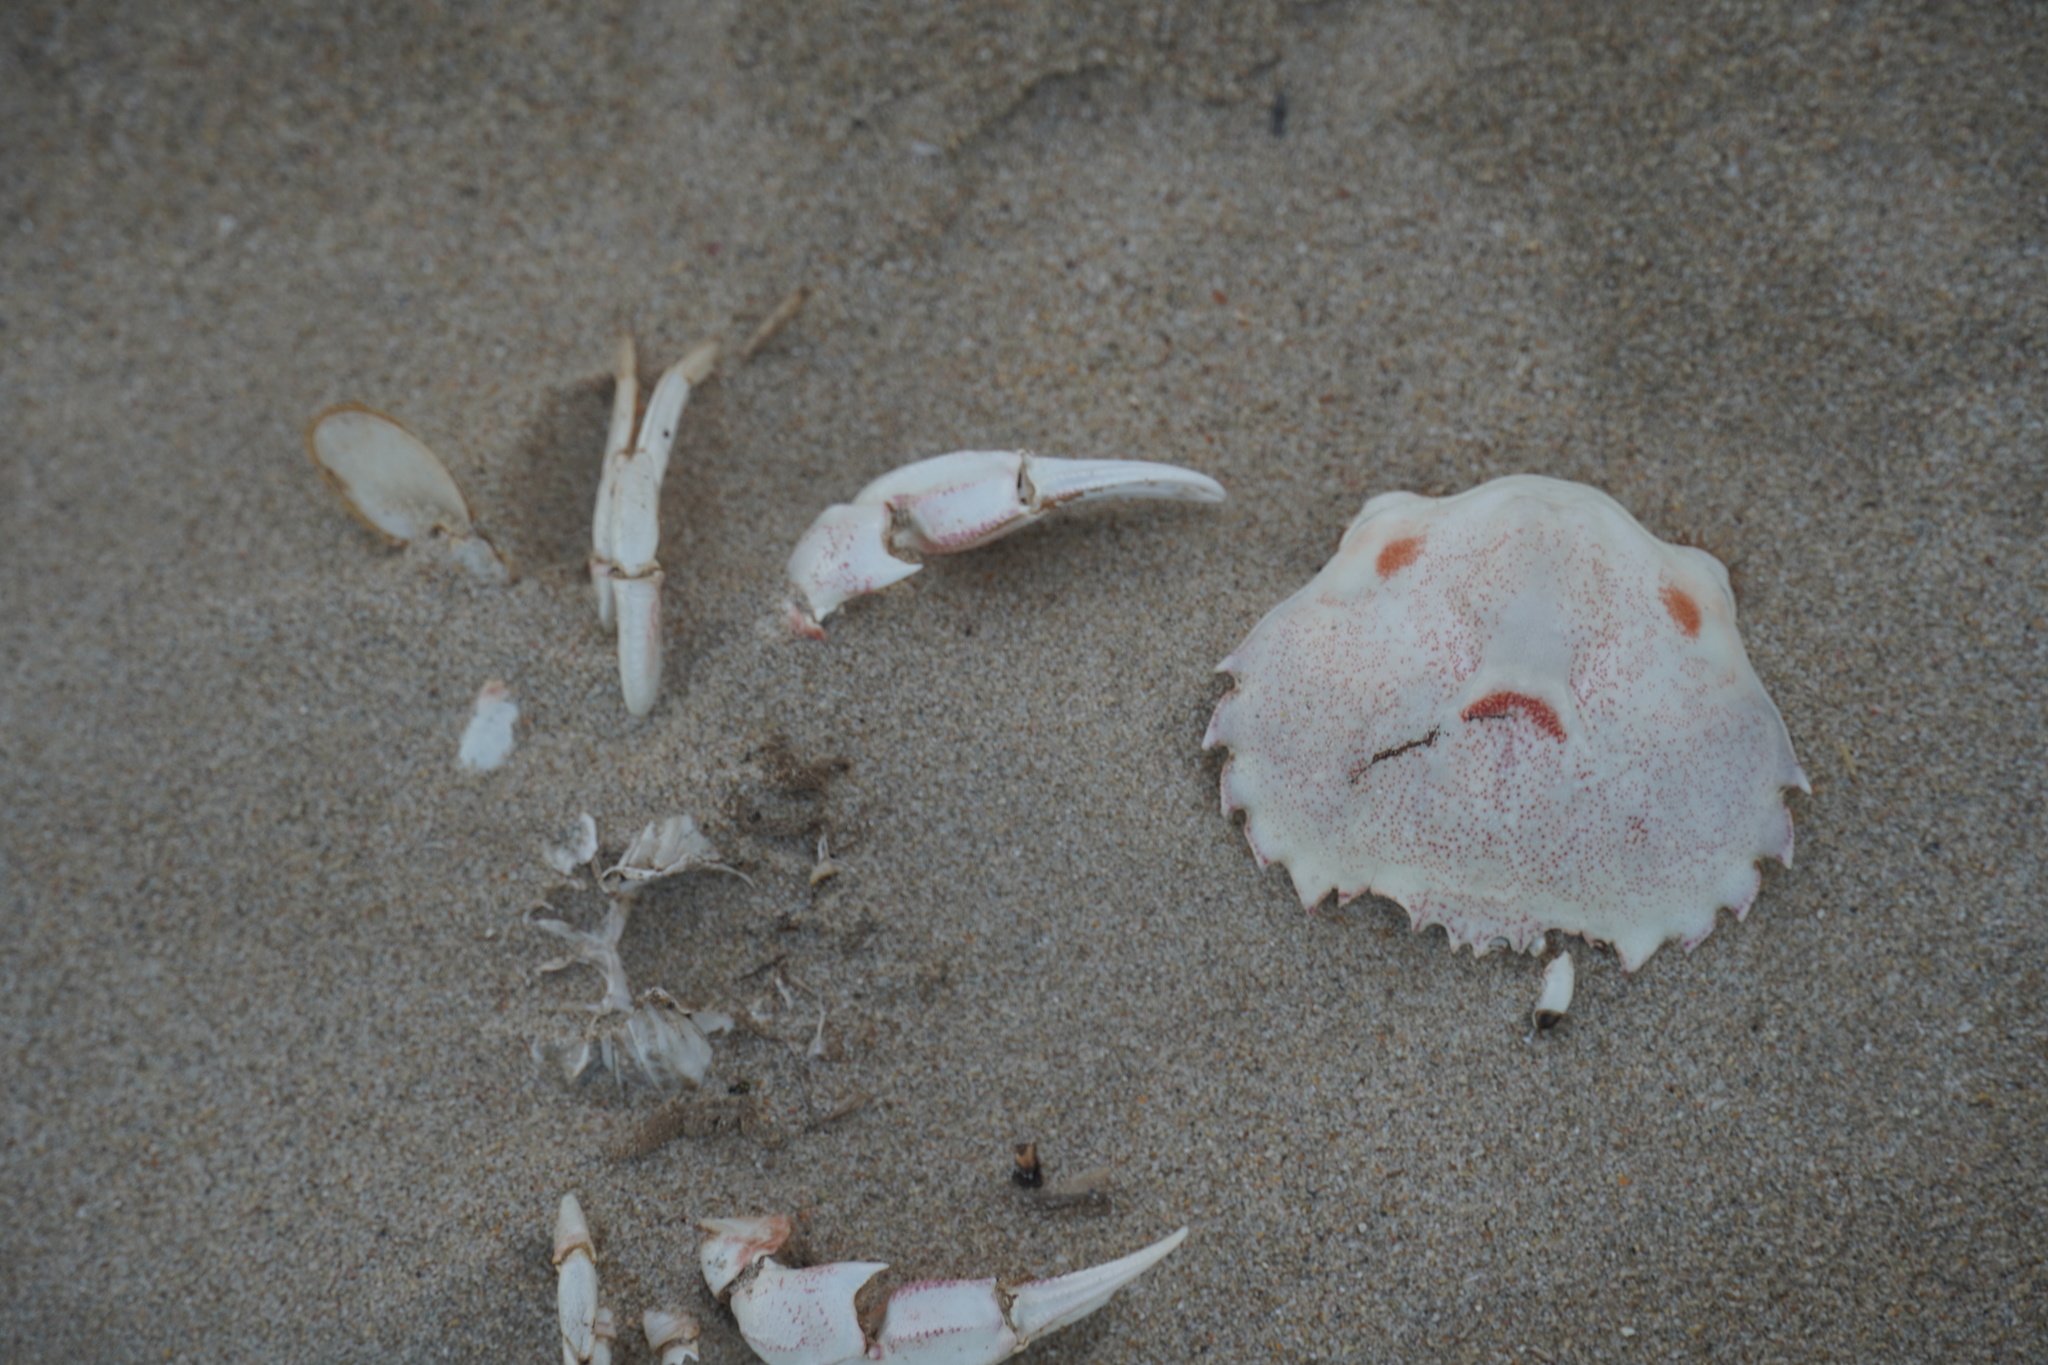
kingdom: Animalia
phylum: Arthropoda
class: Malacostraca
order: Decapoda
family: Ovalipidae
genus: Ovalipes
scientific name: Ovalipes trimaculatus
